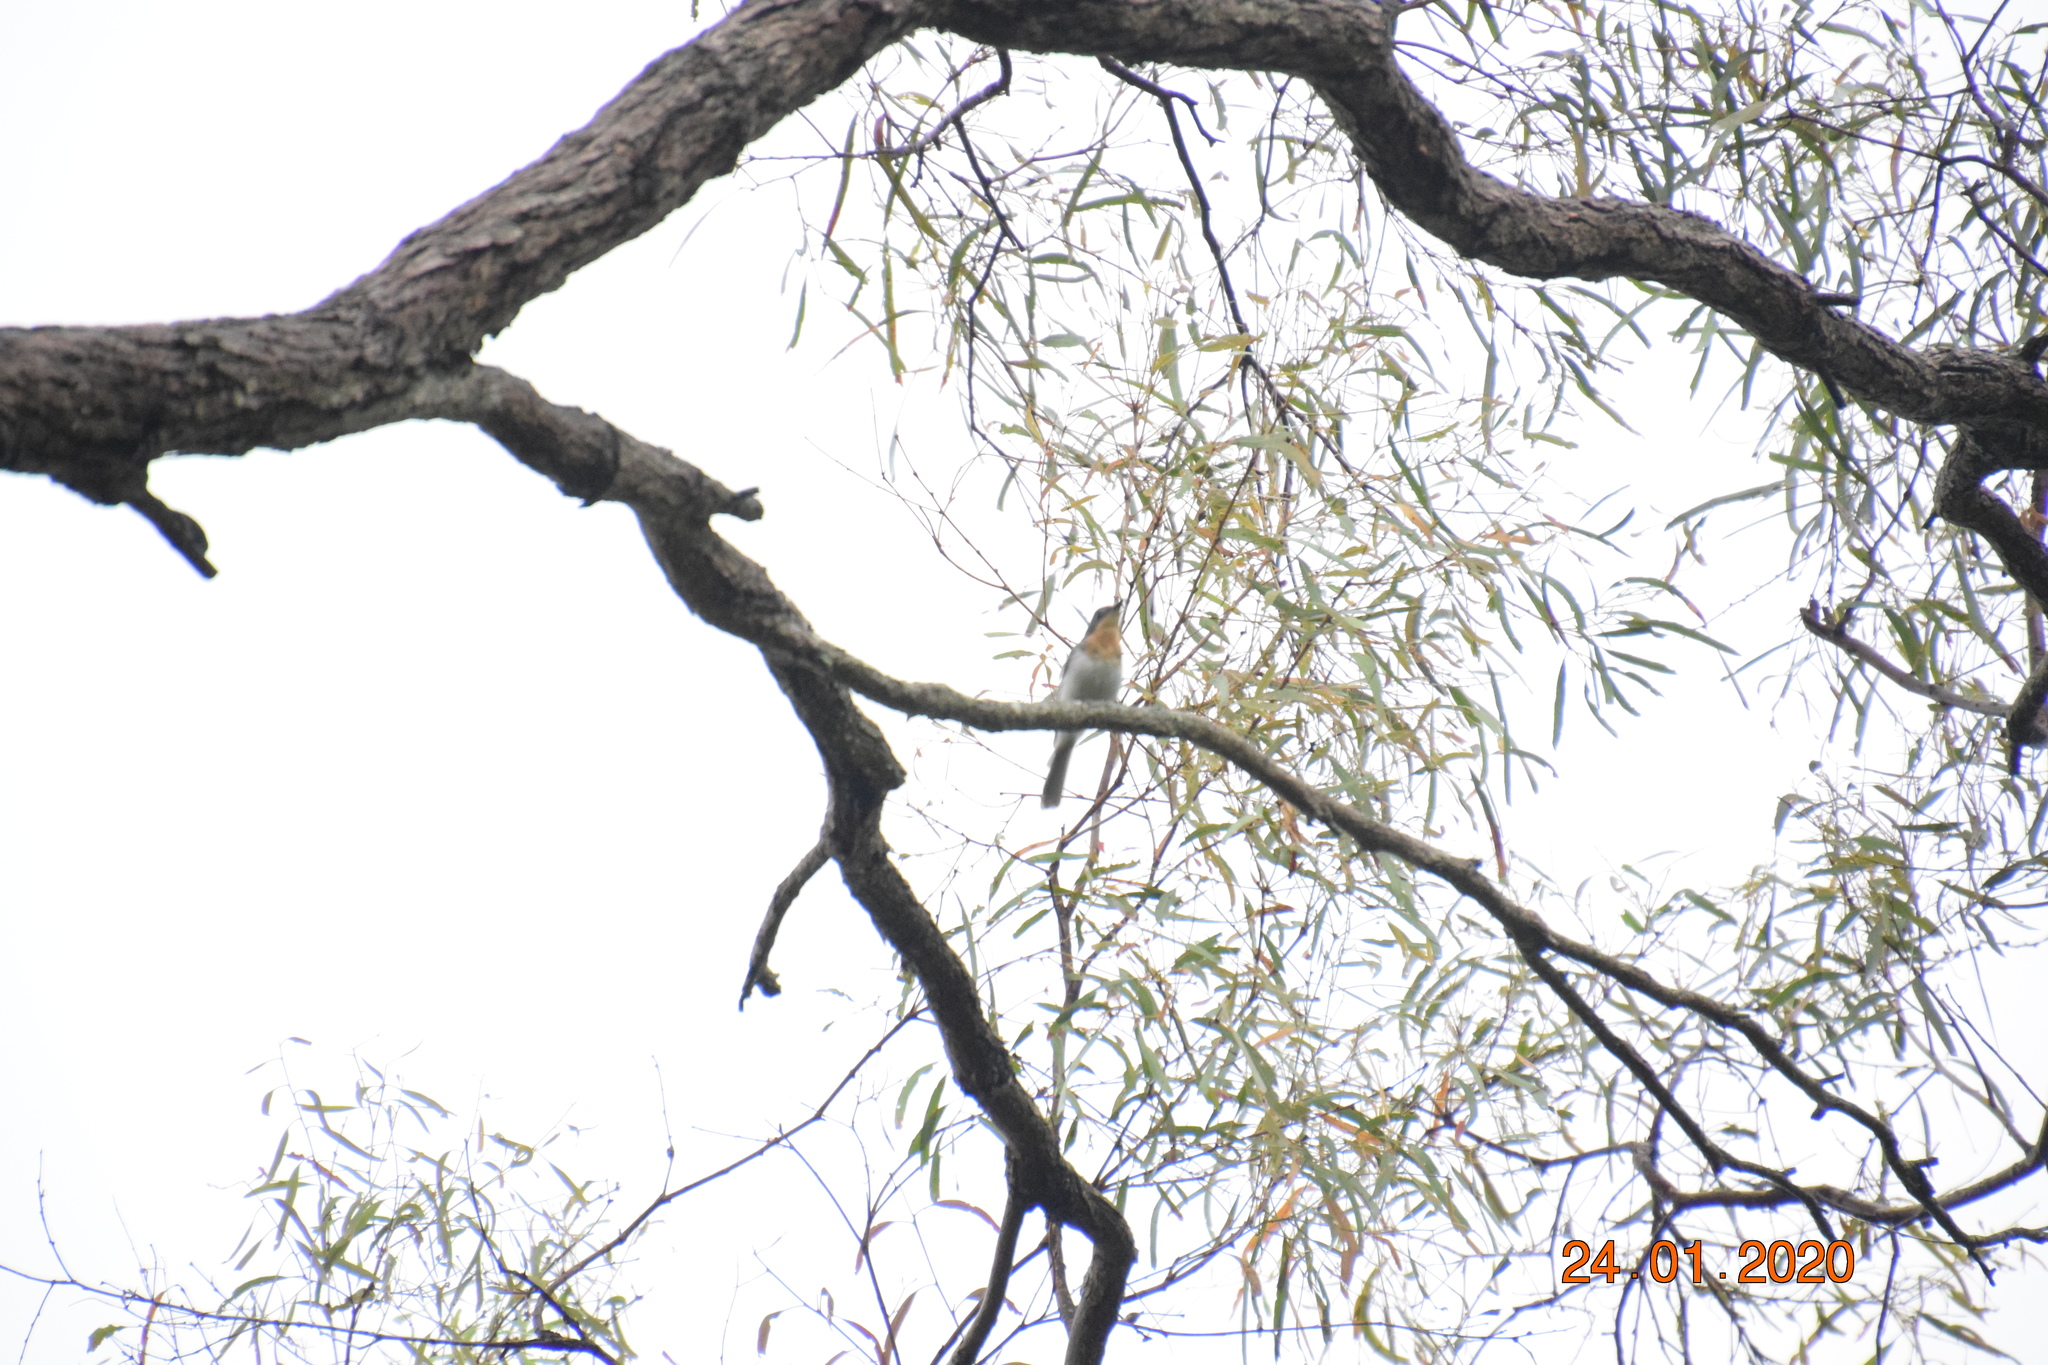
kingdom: Animalia
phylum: Chordata
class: Aves
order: Passeriformes
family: Monarchidae
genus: Myiagra
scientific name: Myiagra rubecula
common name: Leaden flycatcher
